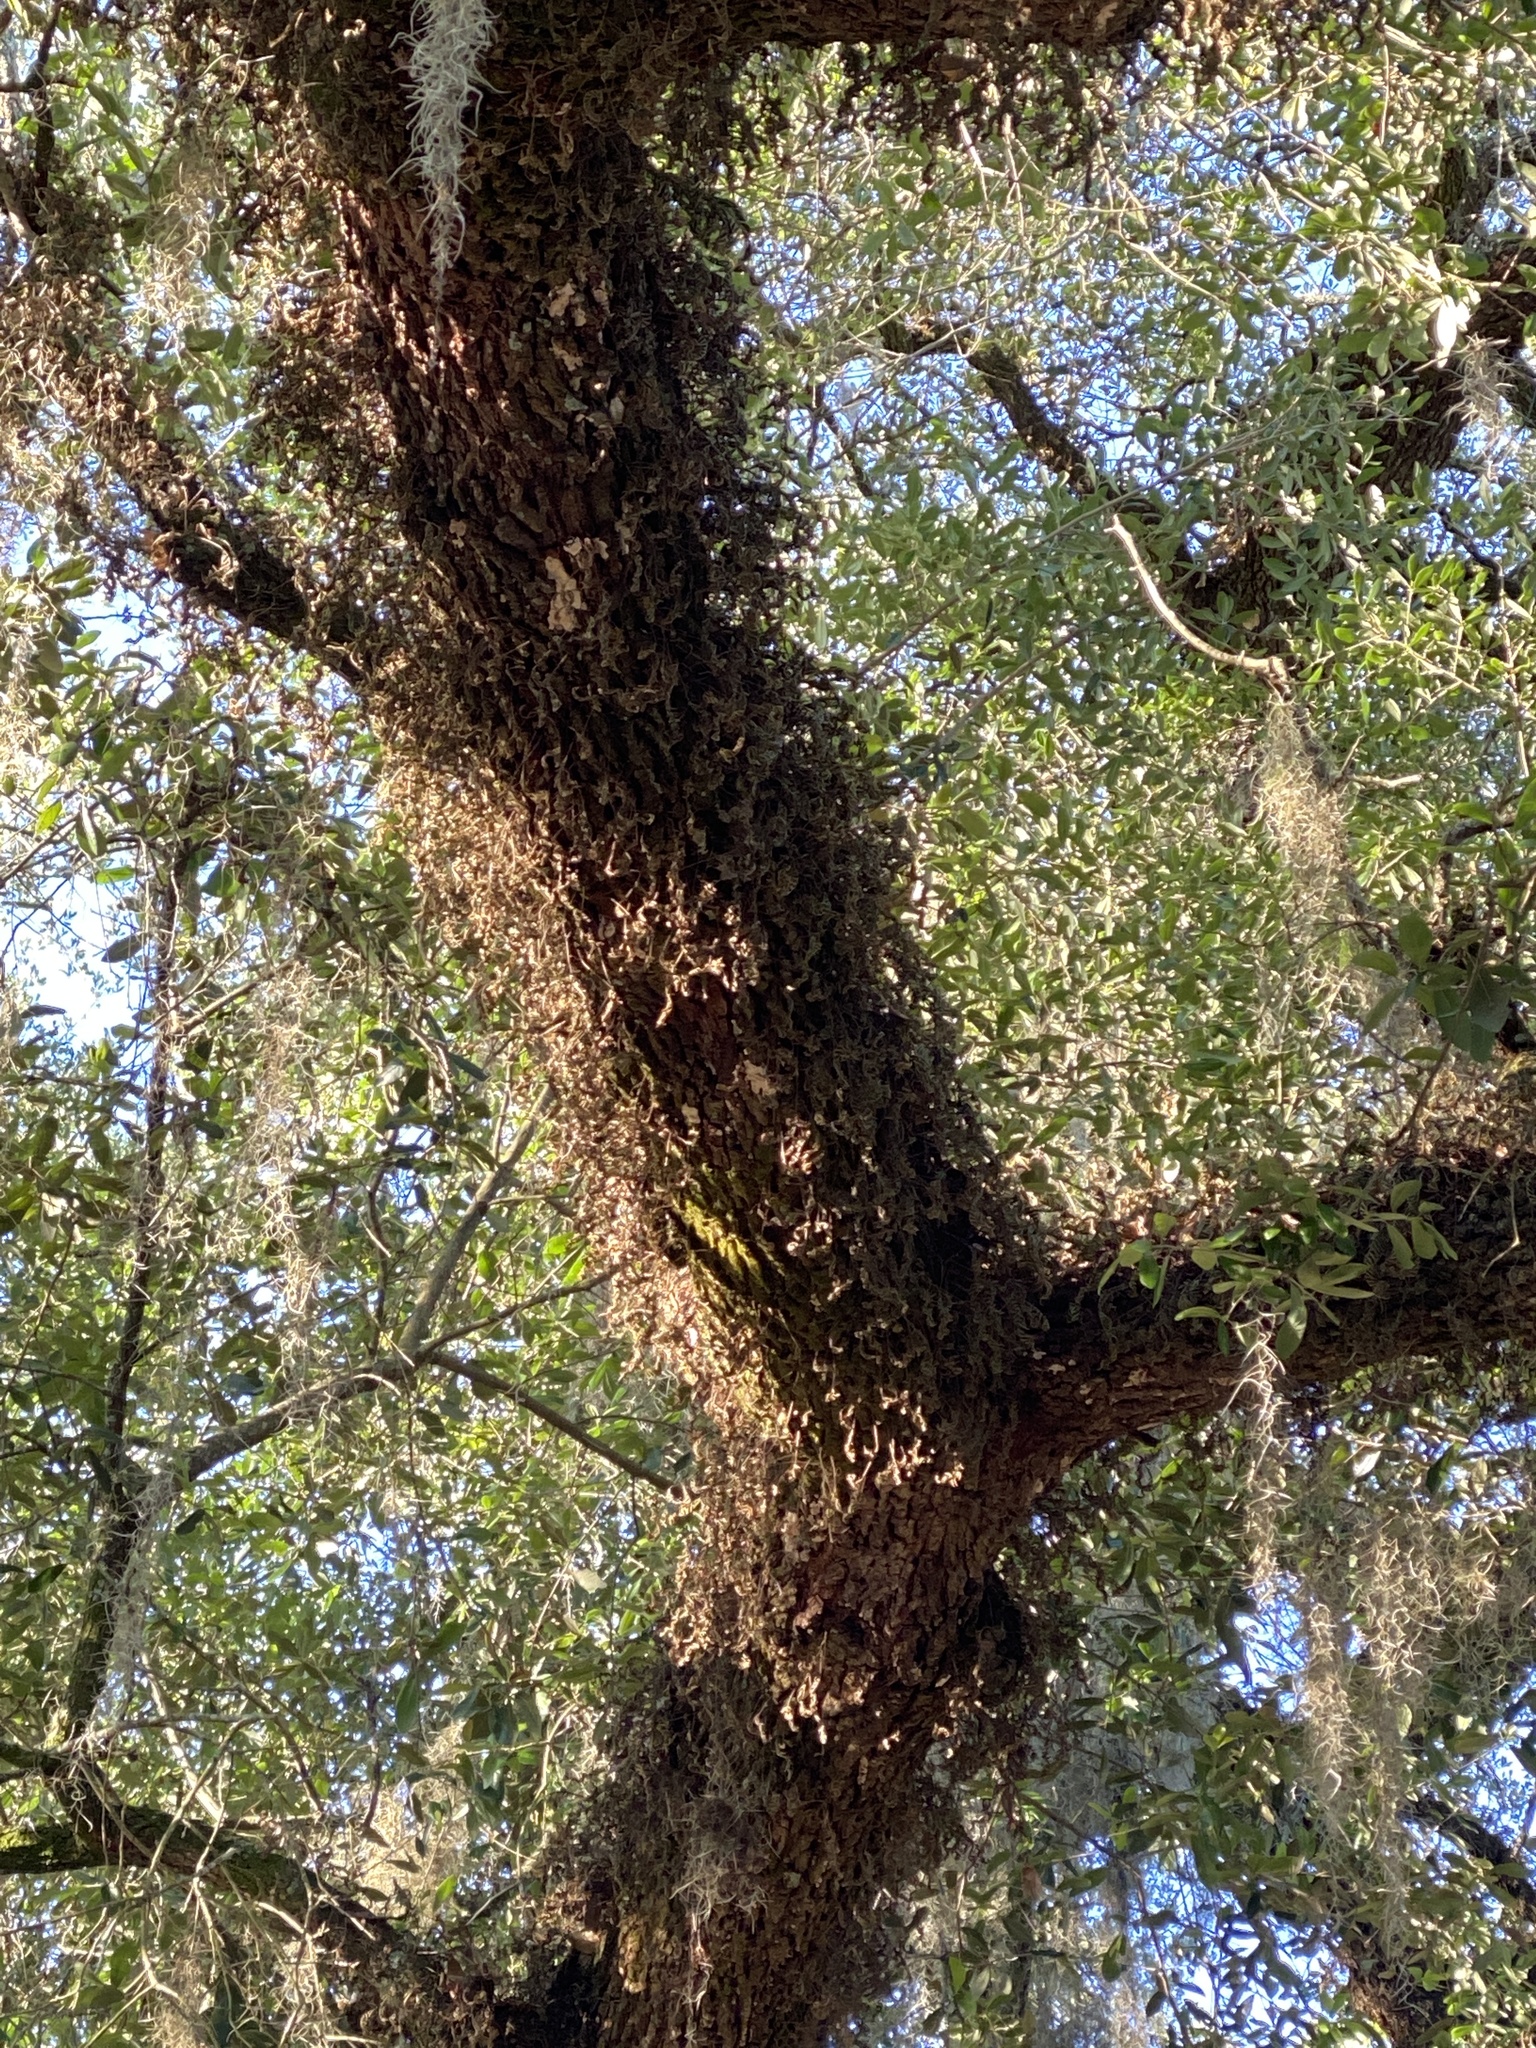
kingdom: Plantae
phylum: Tracheophyta
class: Polypodiopsida
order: Polypodiales
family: Polypodiaceae
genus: Pleopeltis
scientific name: Pleopeltis michauxiana
